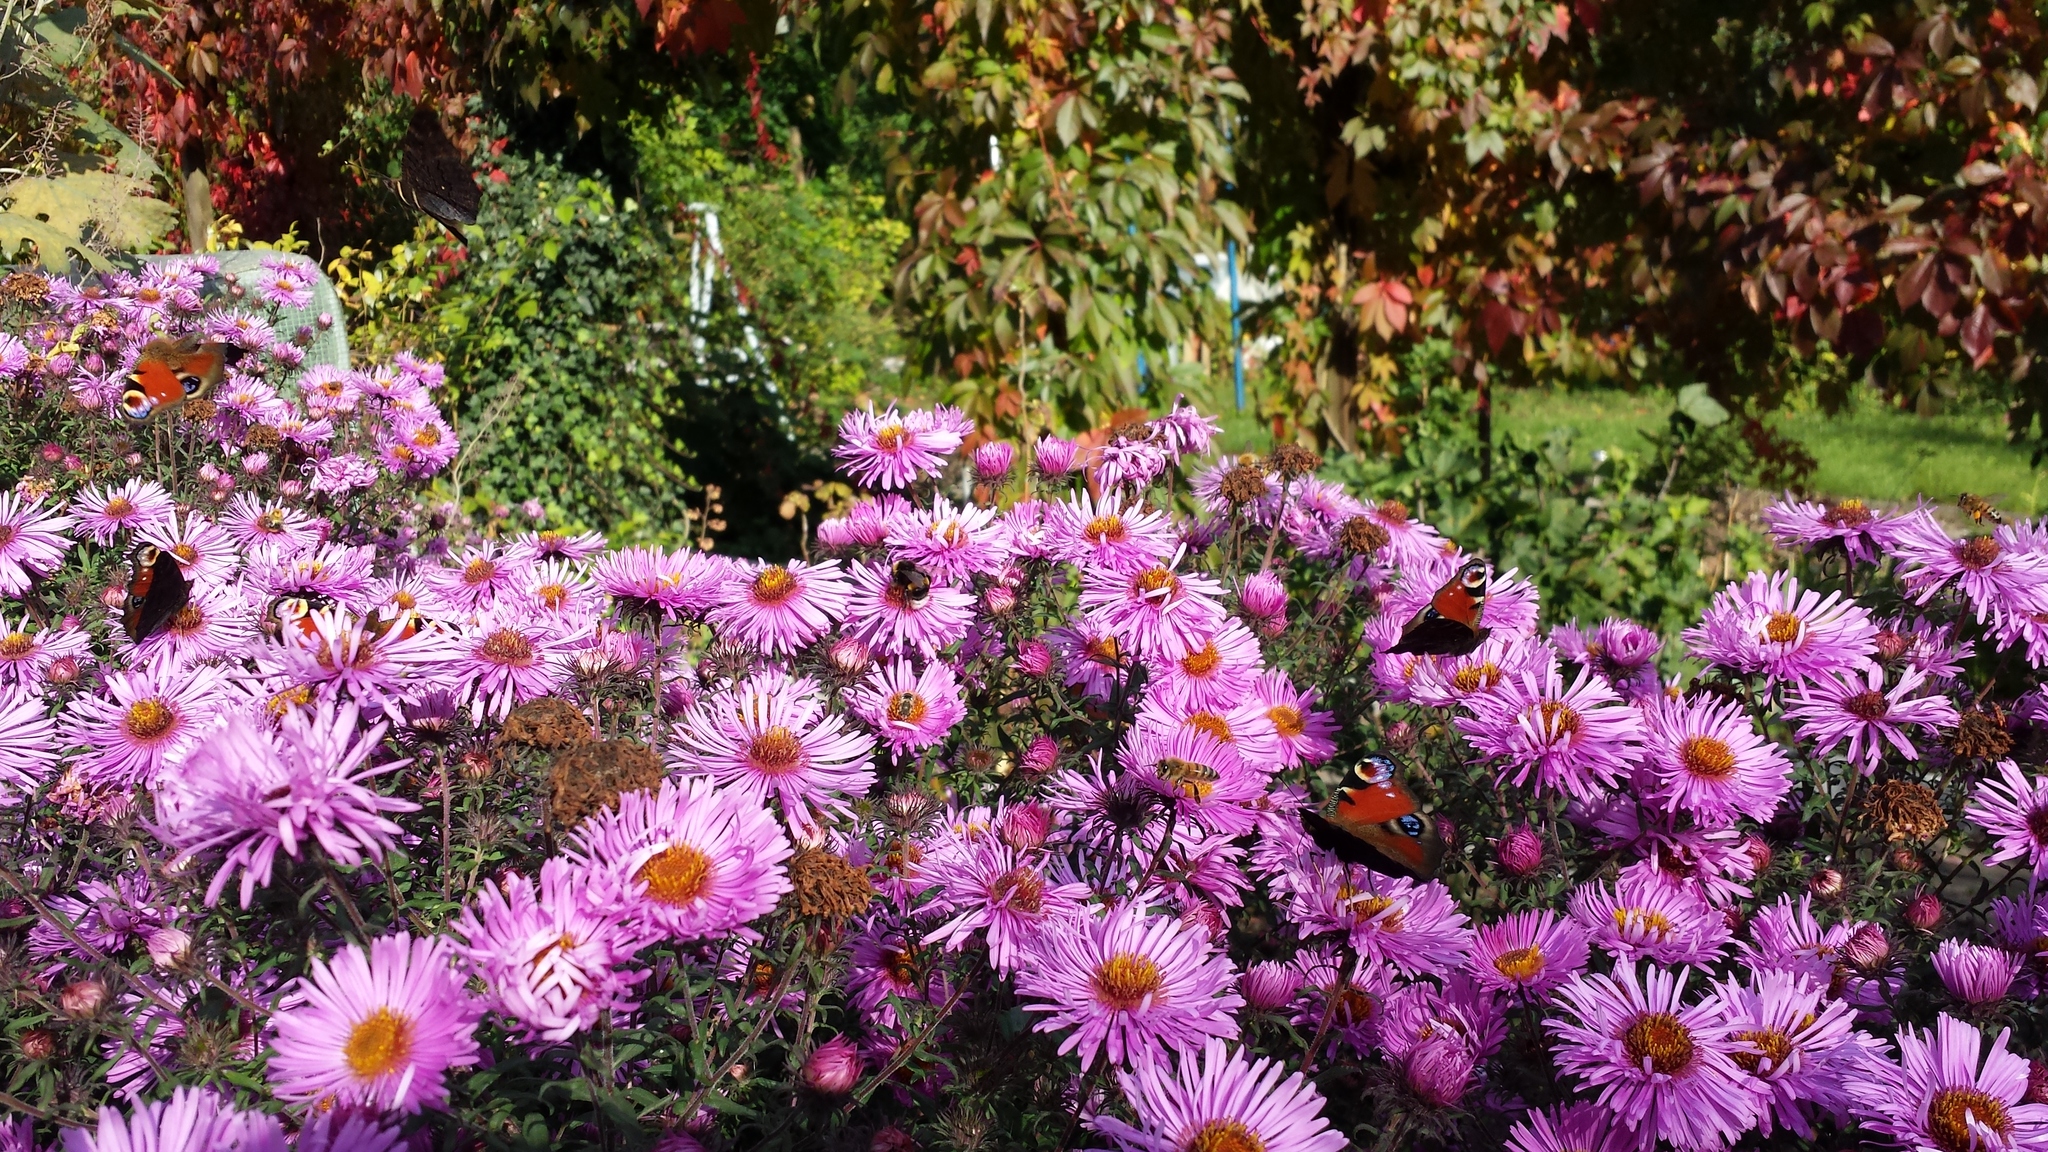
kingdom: Animalia
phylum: Arthropoda
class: Insecta
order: Lepidoptera
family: Nymphalidae
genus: Aglais
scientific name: Aglais io
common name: Peacock
